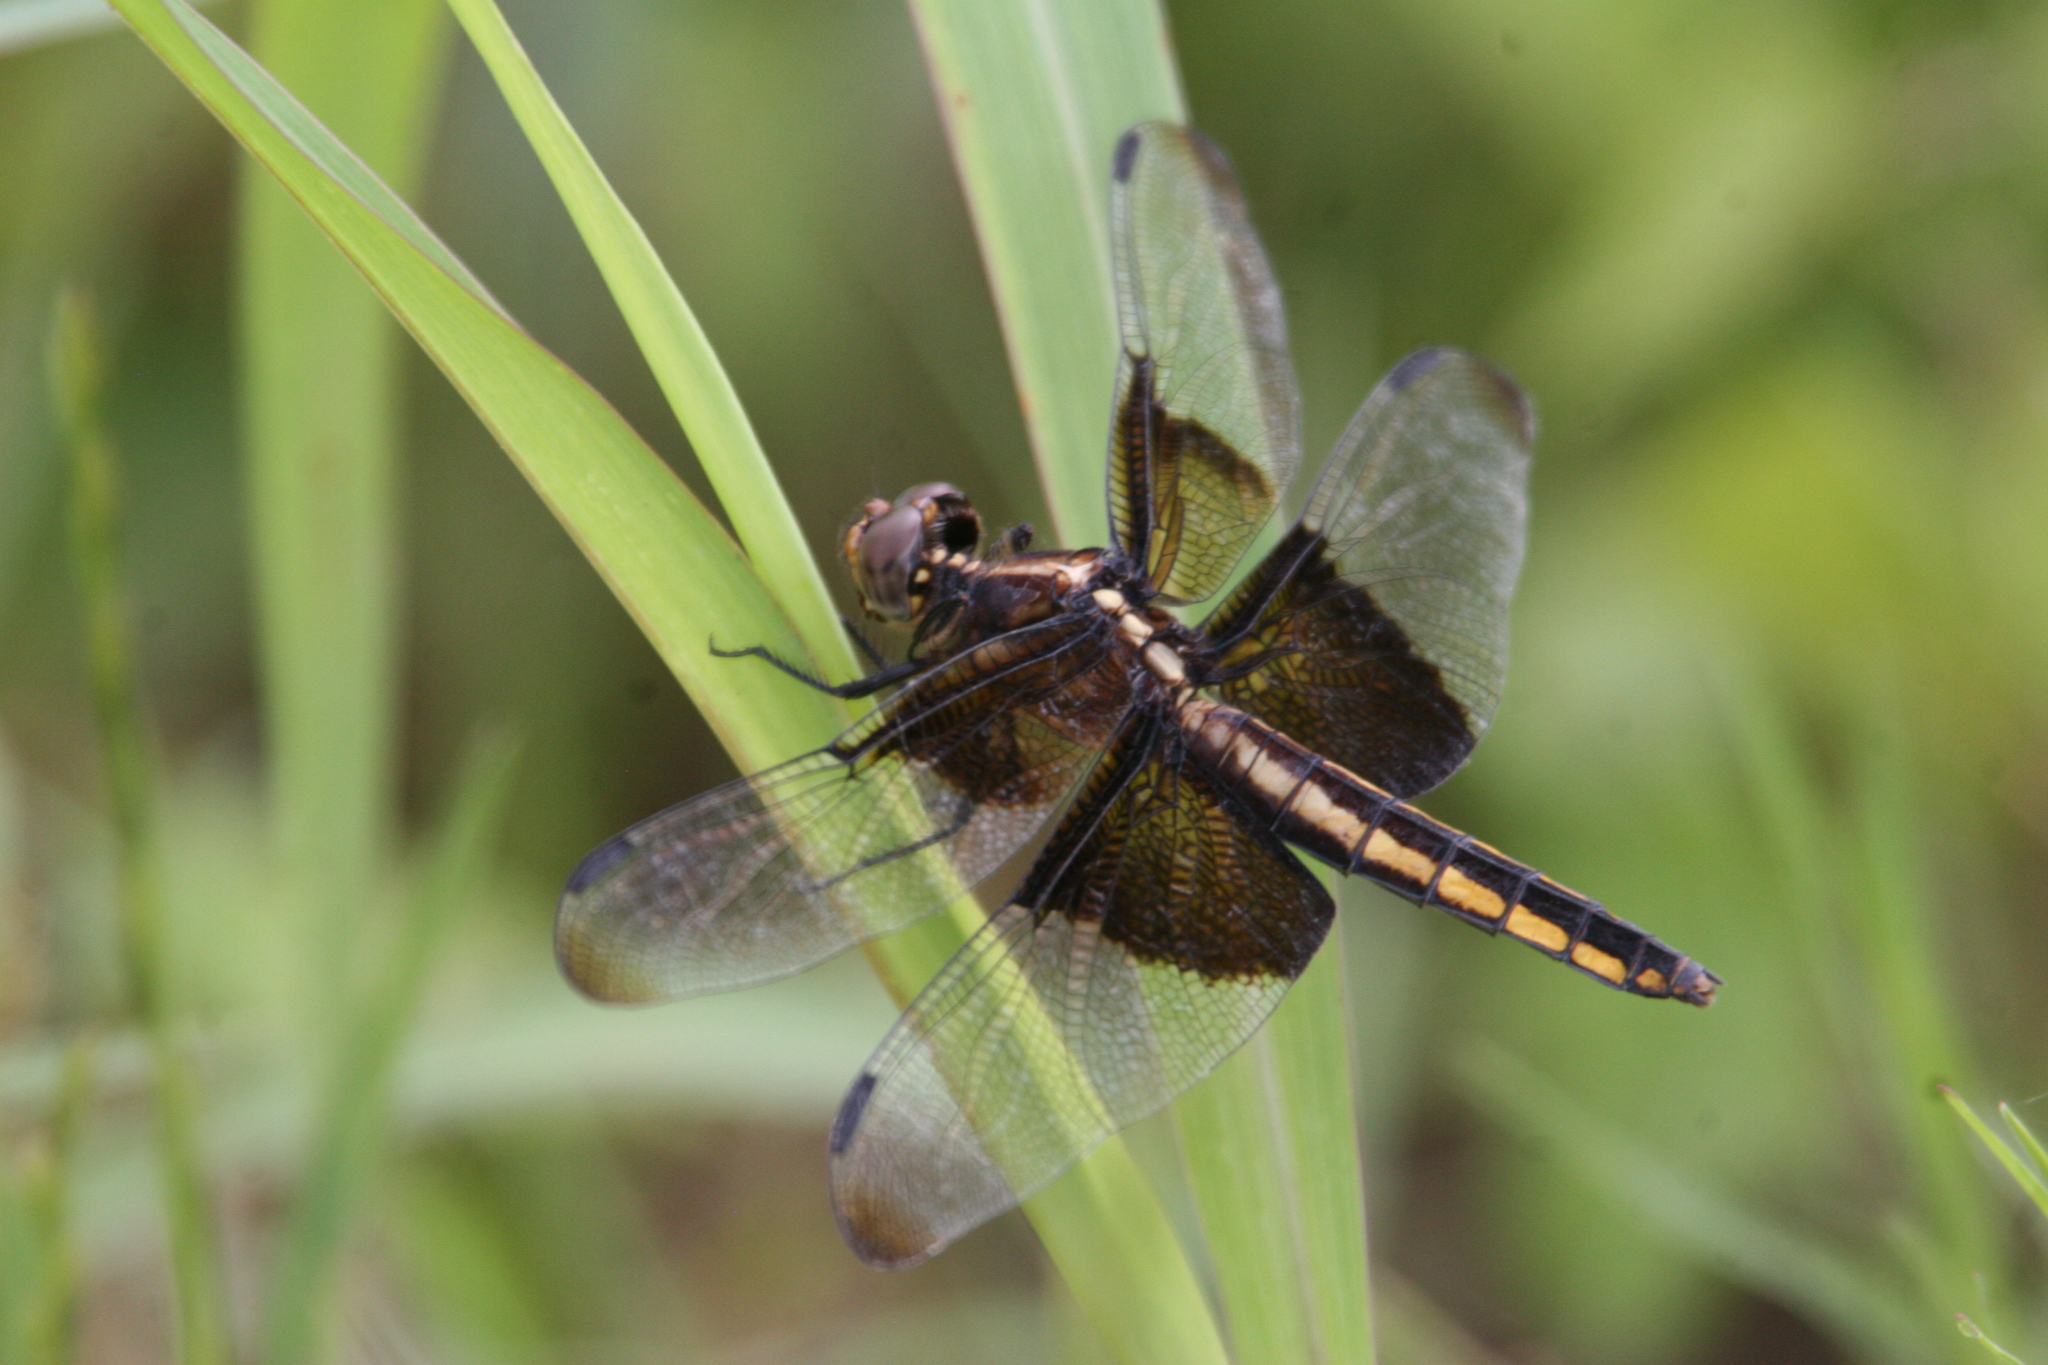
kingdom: Animalia
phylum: Arthropoda
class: Insecta
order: Odonata
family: Libellulidae
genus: Libellula
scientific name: Libellula luctuosa
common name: Widow skimmer
